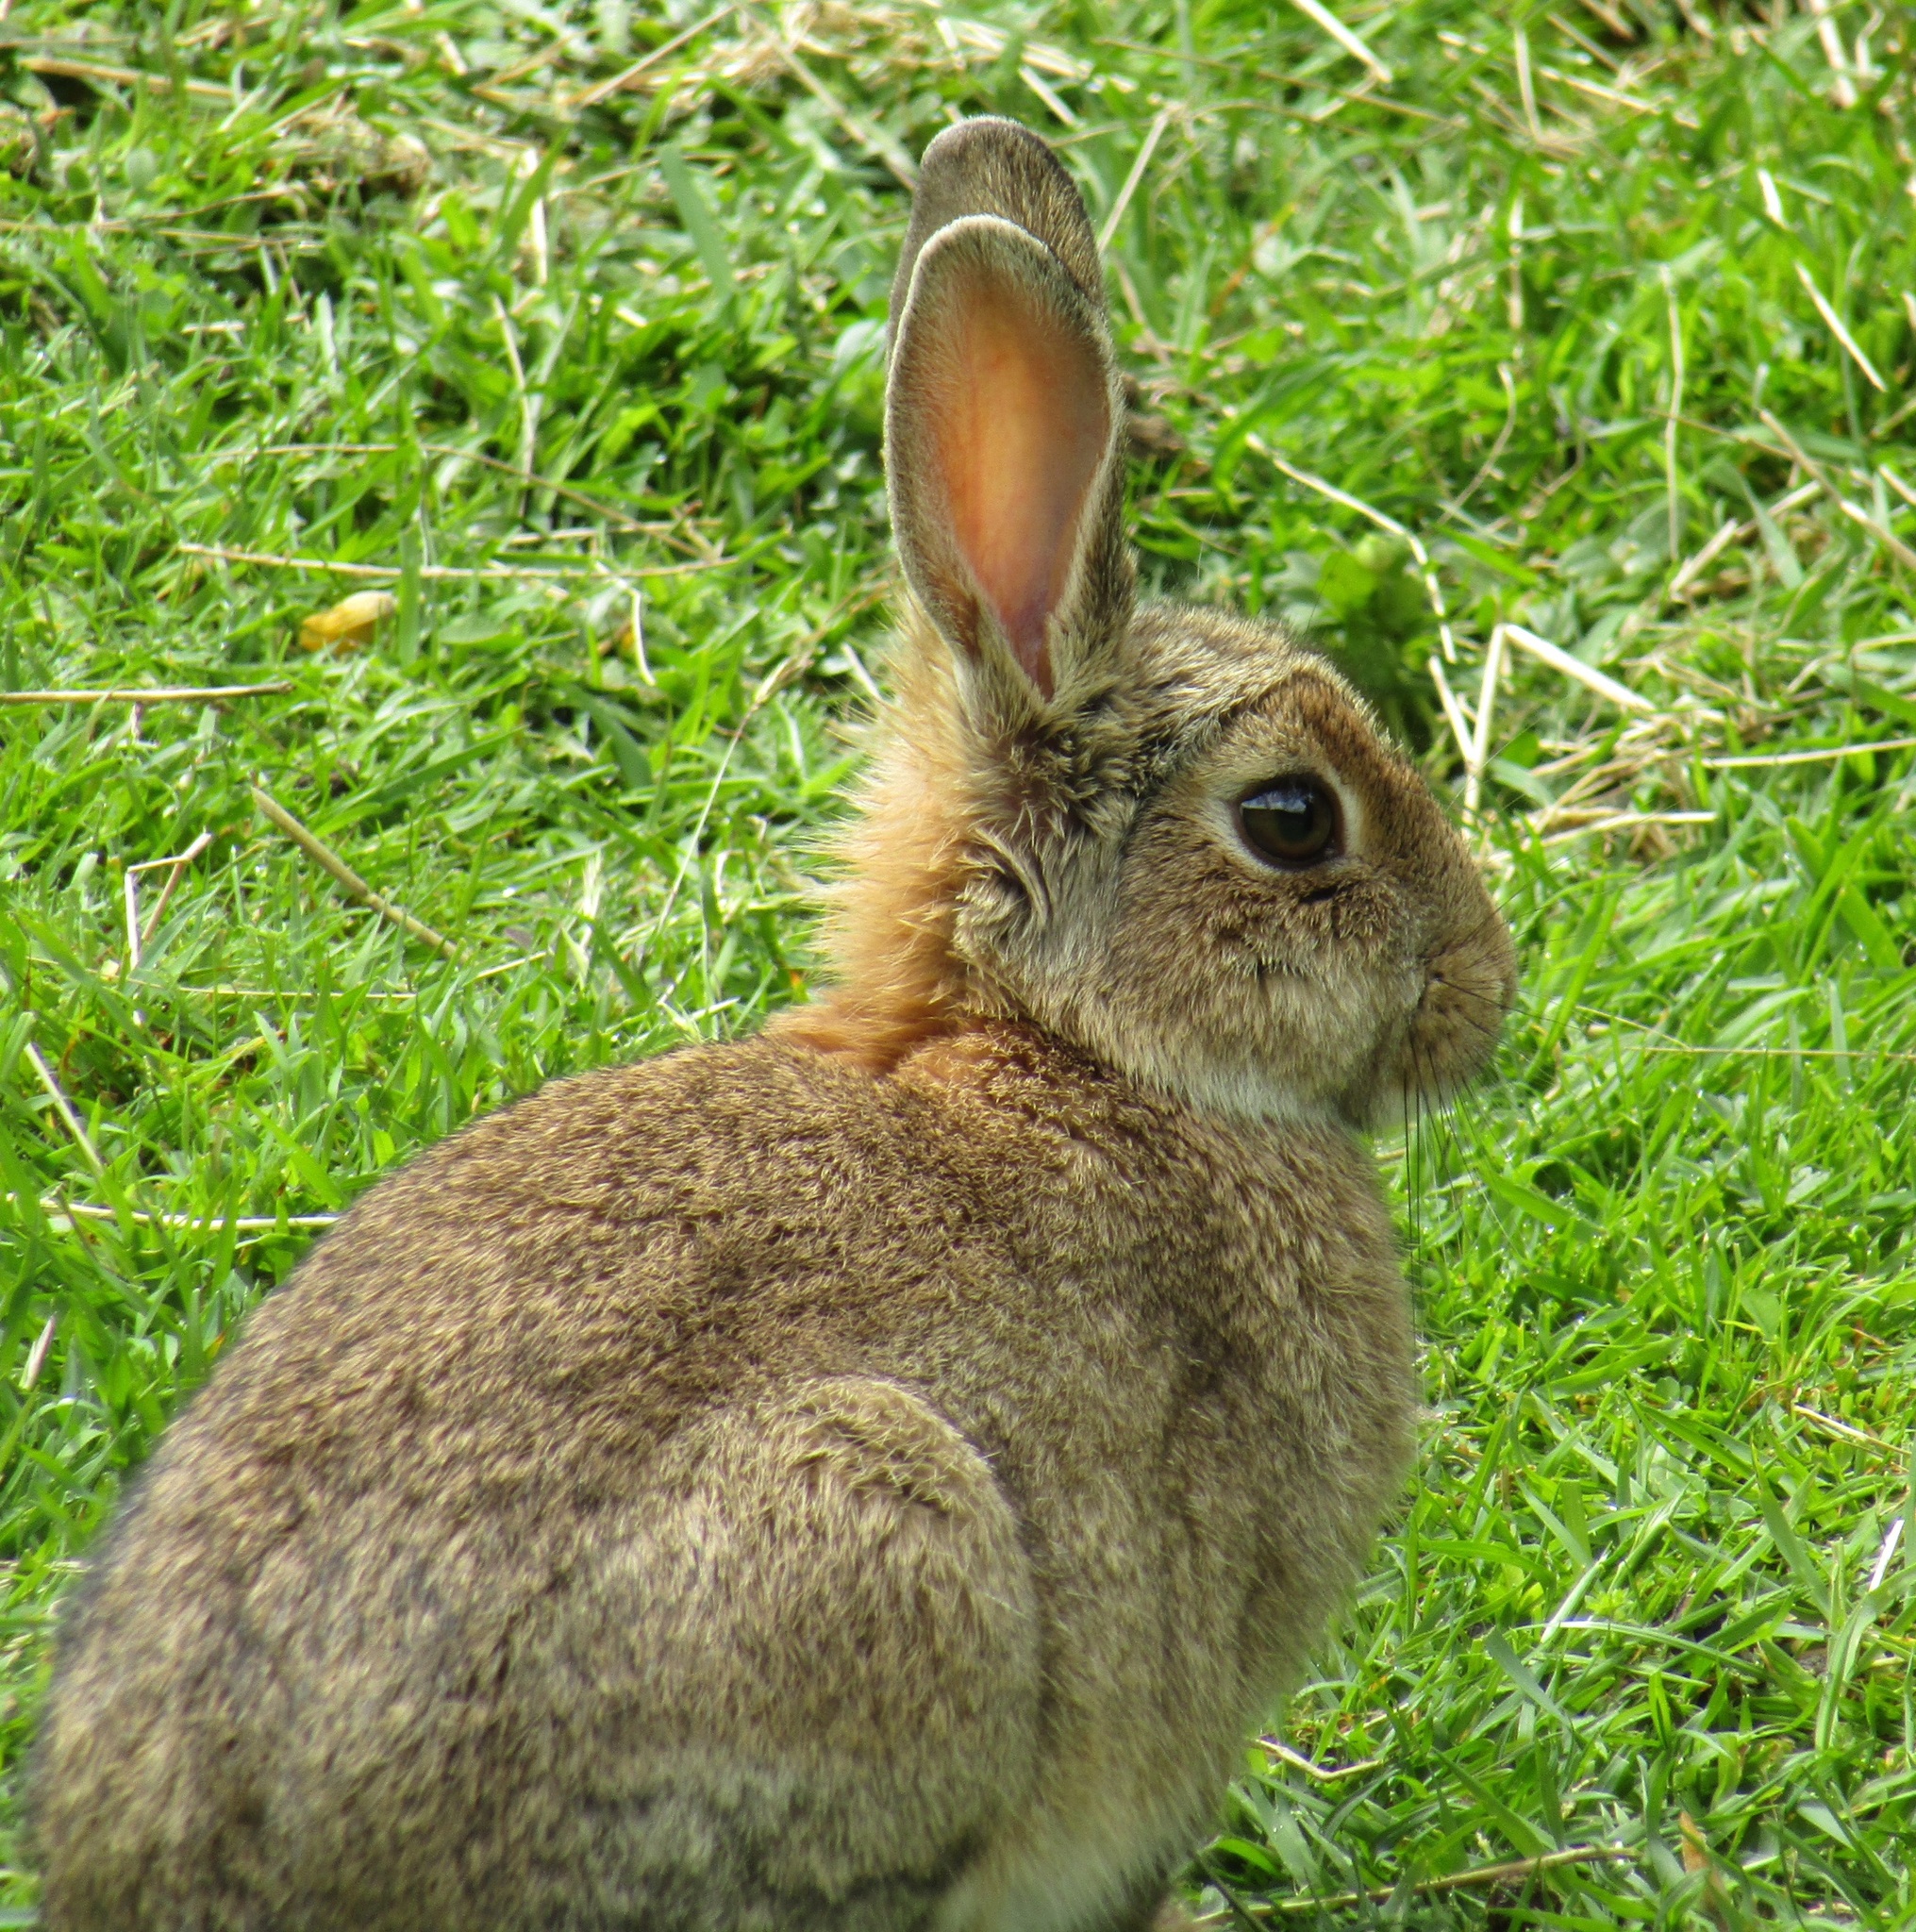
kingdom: Animalia
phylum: Chordata
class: Mammalia
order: Lagomorpha
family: Leporidae
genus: Oryctolagus
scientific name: Oryctolagus cuniculus
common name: European rabbit
